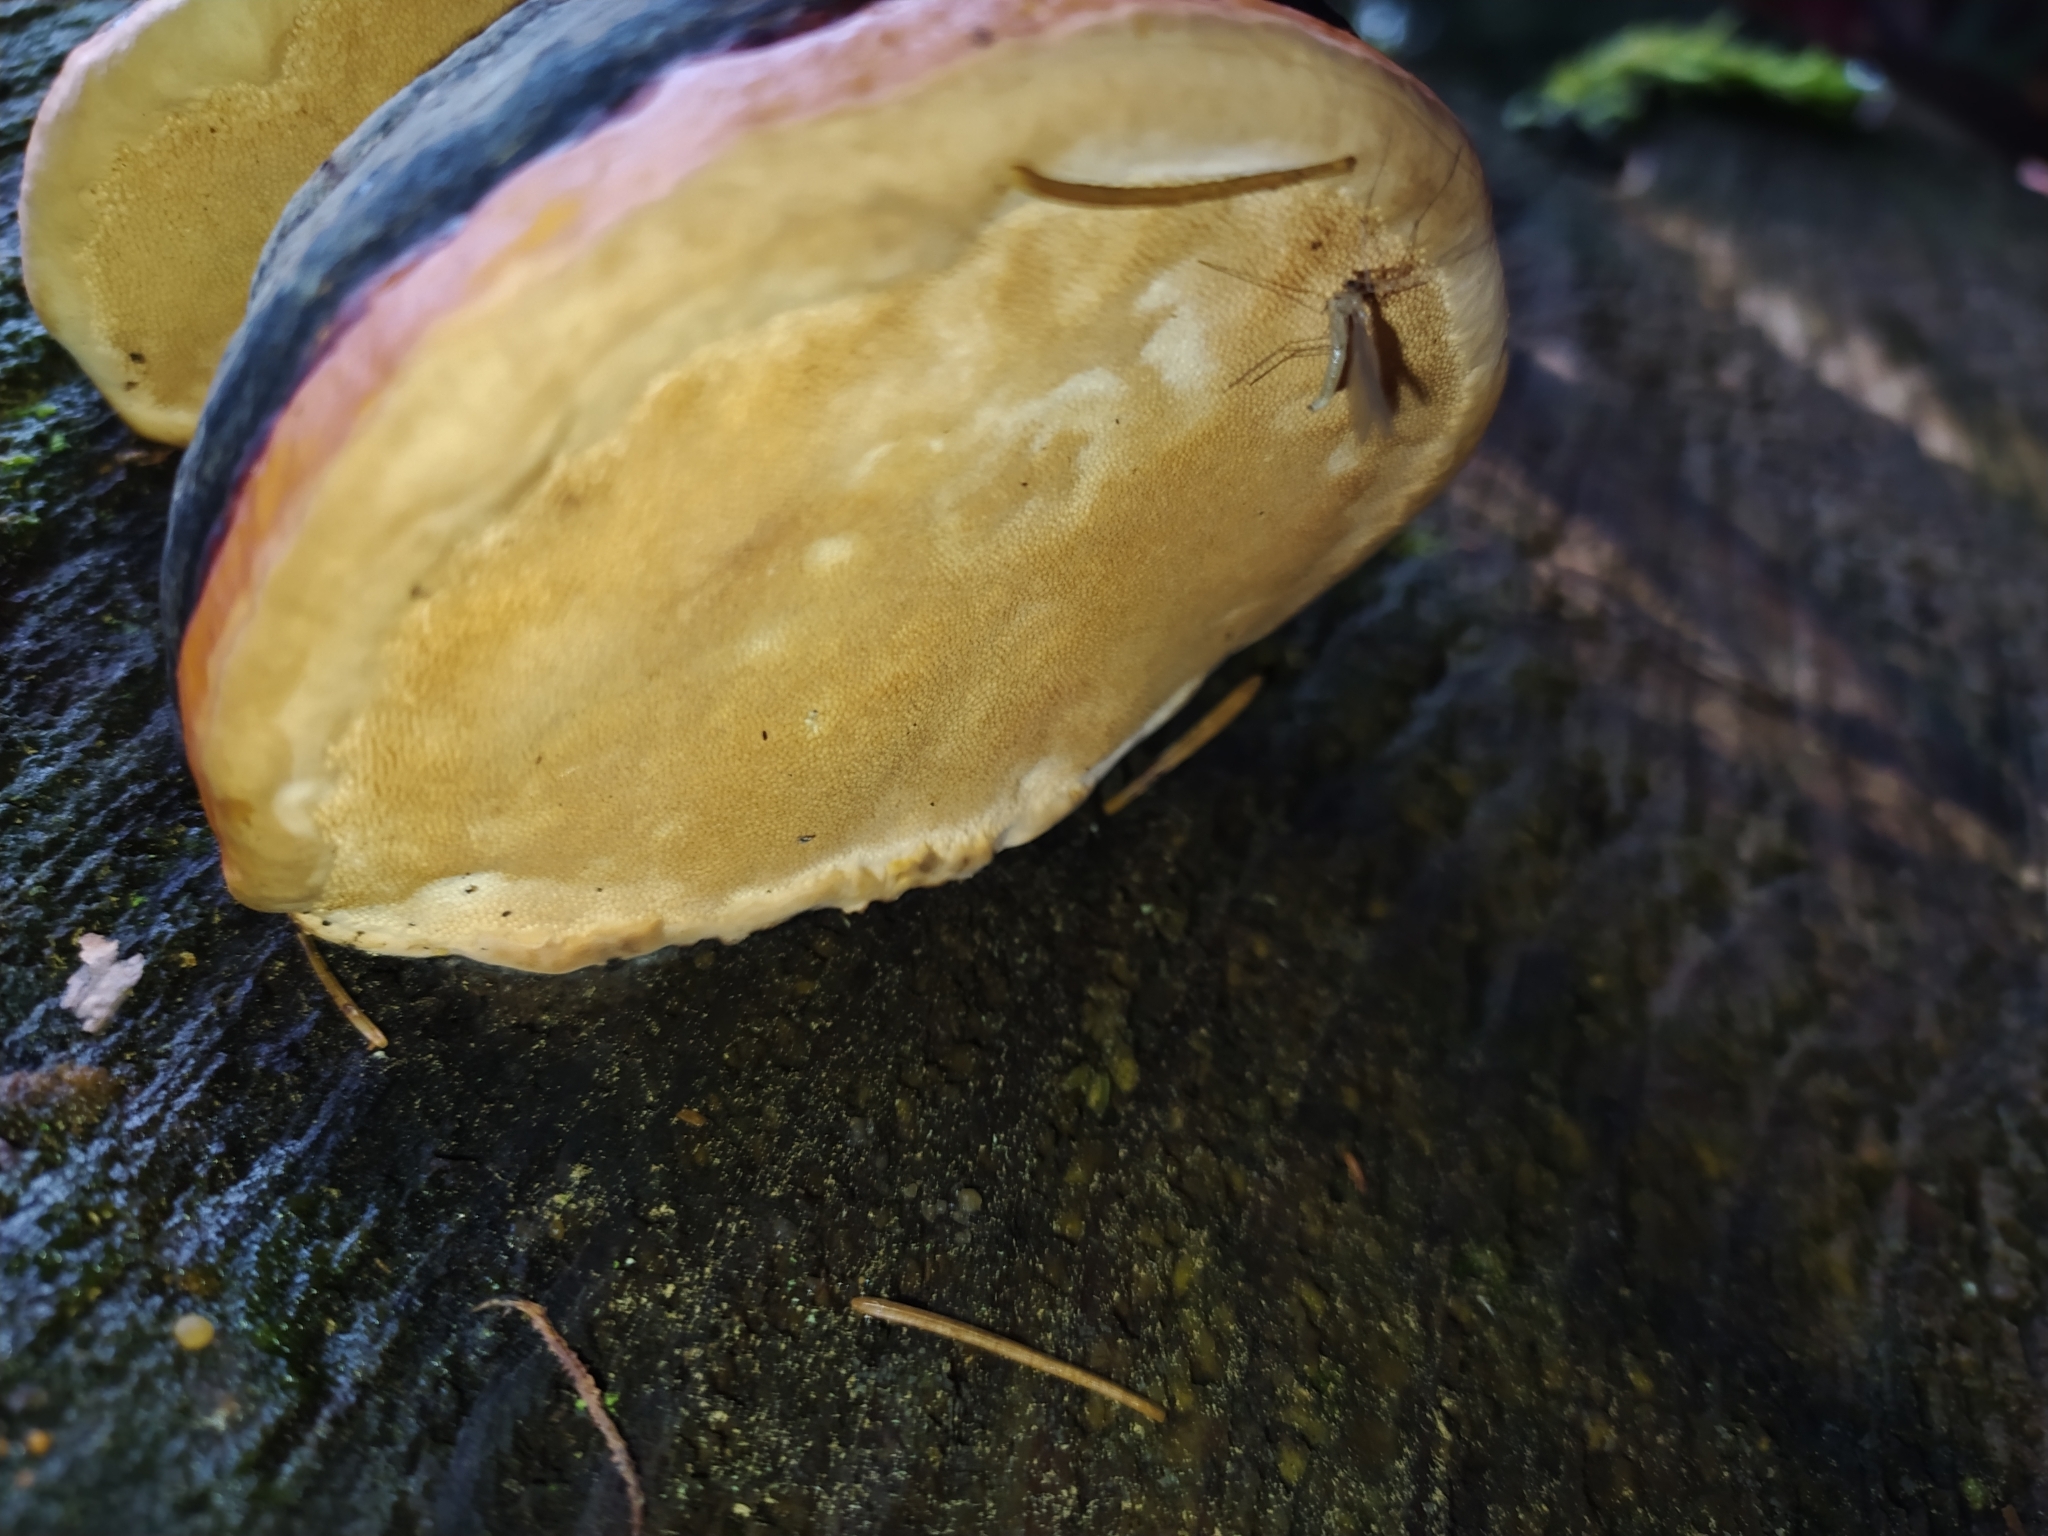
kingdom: Fungi
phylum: Basidiomycota
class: Agaricomycetes
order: Polyporales
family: Fomitopsidaceae
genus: Fomitopsis
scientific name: Fomitopsis pinicola
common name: Red-belted bracket
